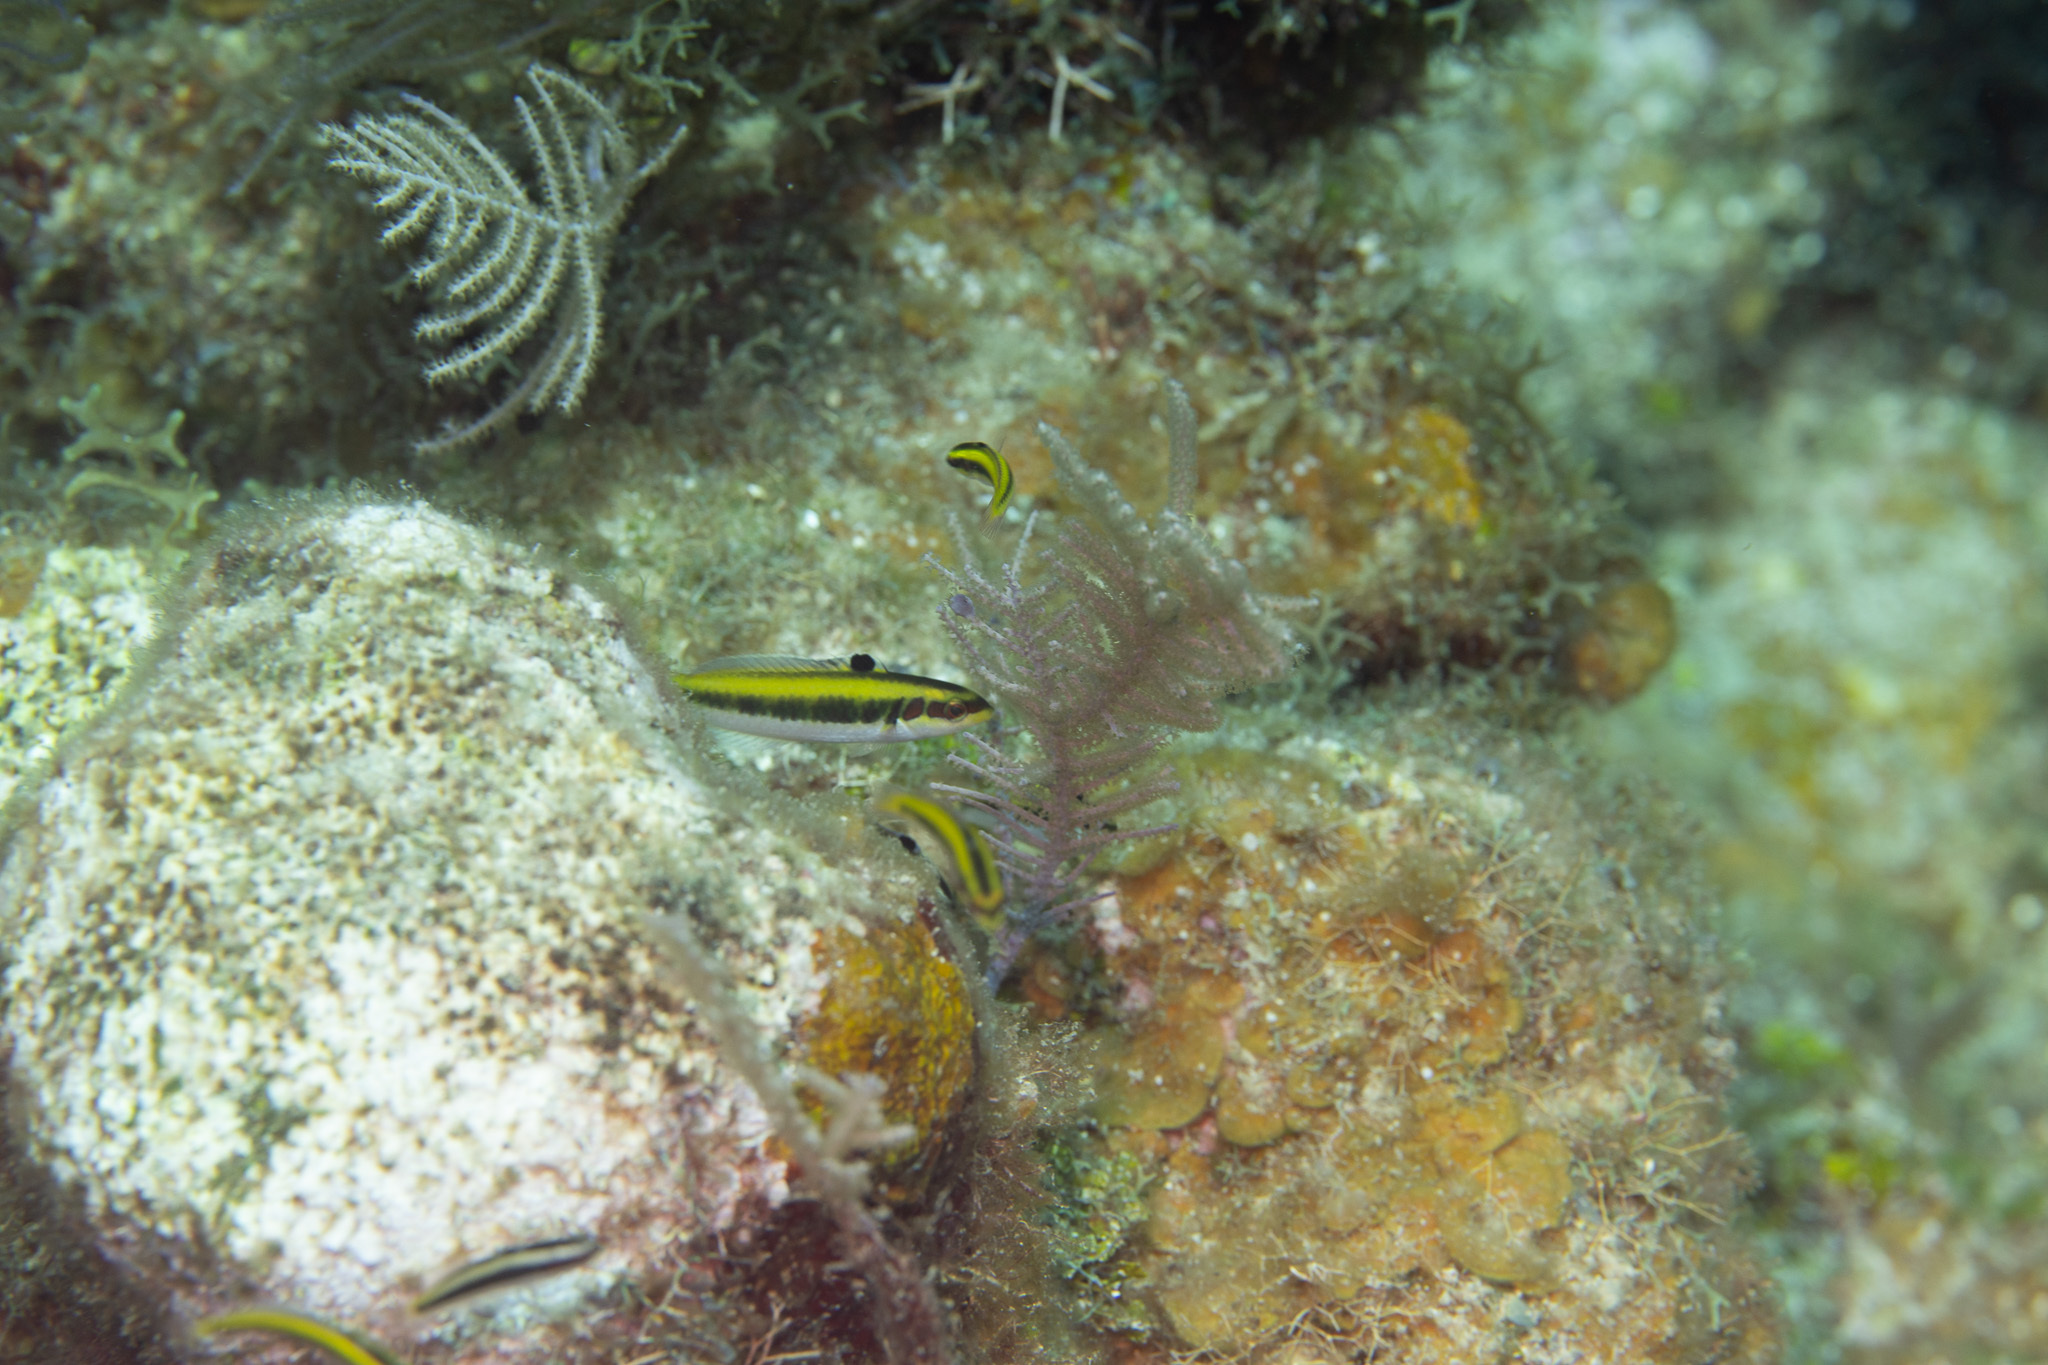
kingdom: Animalia
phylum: Chordata
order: Perciformes
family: Labridae
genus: Thalassoma
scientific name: Thalassoma bifasciatum
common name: Bluehead wrasse
